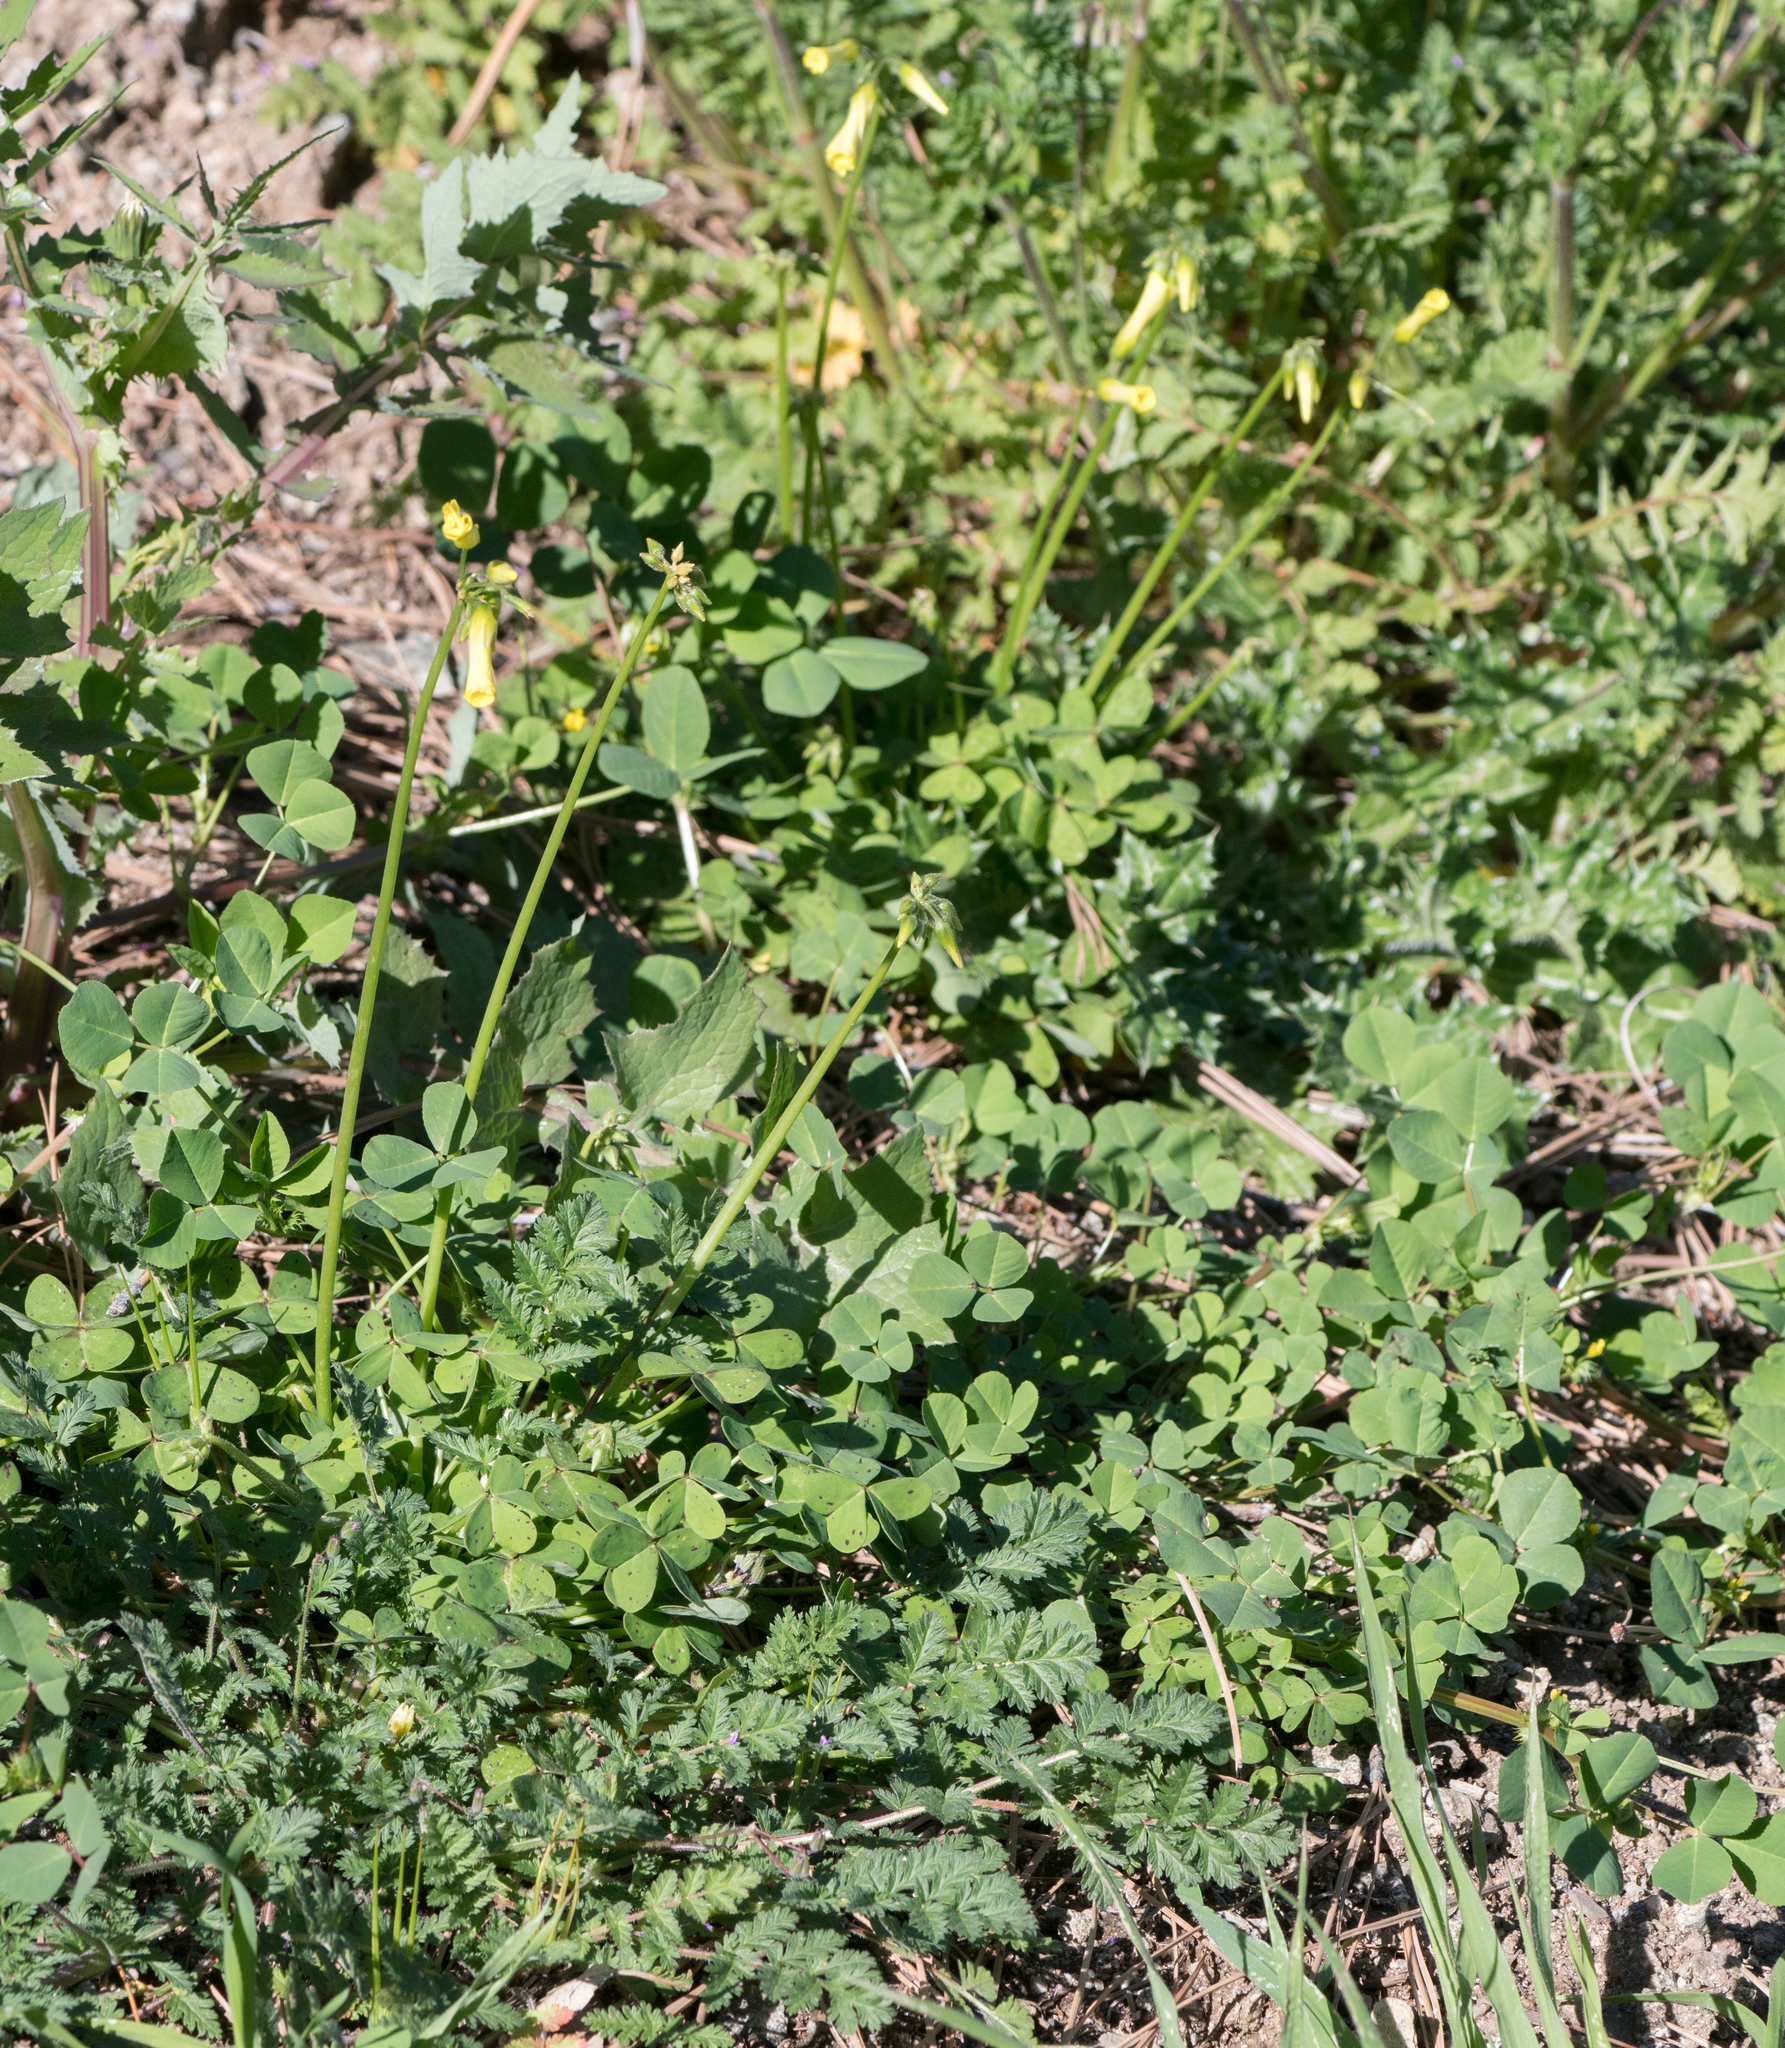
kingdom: Plantae
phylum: Tracheophyta
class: Magnoliopsida
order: Oxalidales
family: Oxalidaceae
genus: Oxalis
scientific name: Oxalis pes-caprae
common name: Bermuda-buttercup
